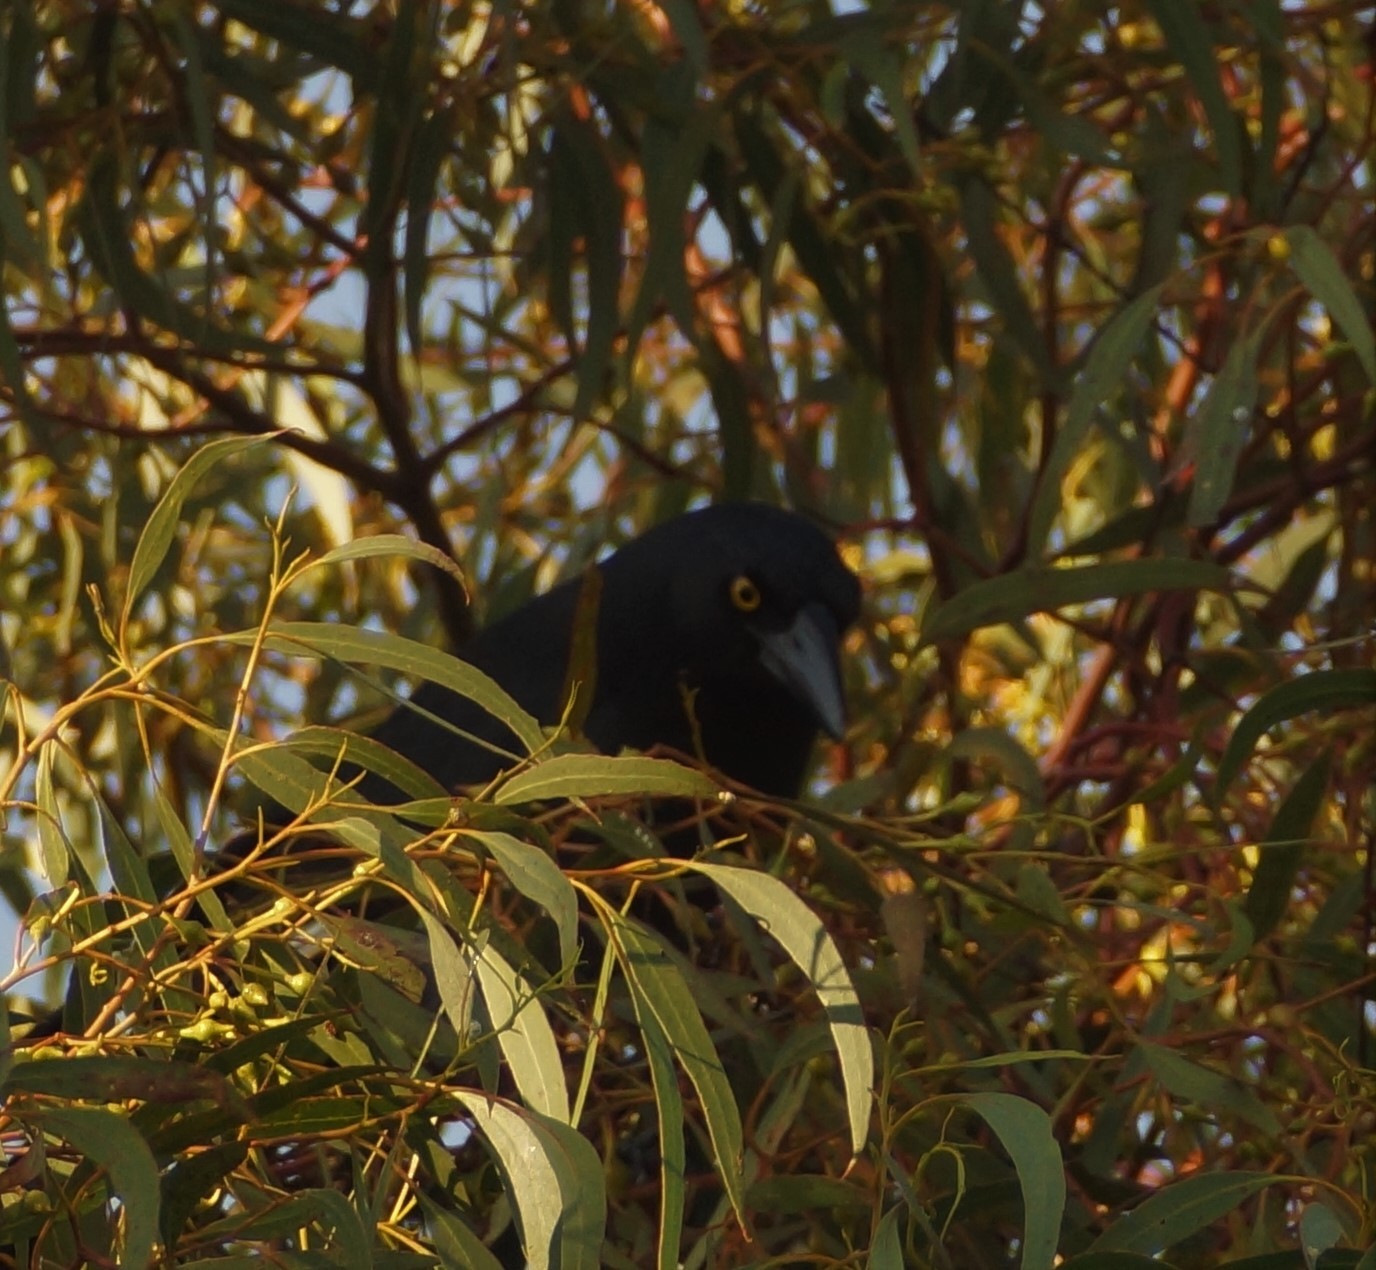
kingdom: Animalia
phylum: Chordata
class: Aves
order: Passeriformes
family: Cracticidae
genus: Strepera
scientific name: Strepera graculina
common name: Pied currawong
